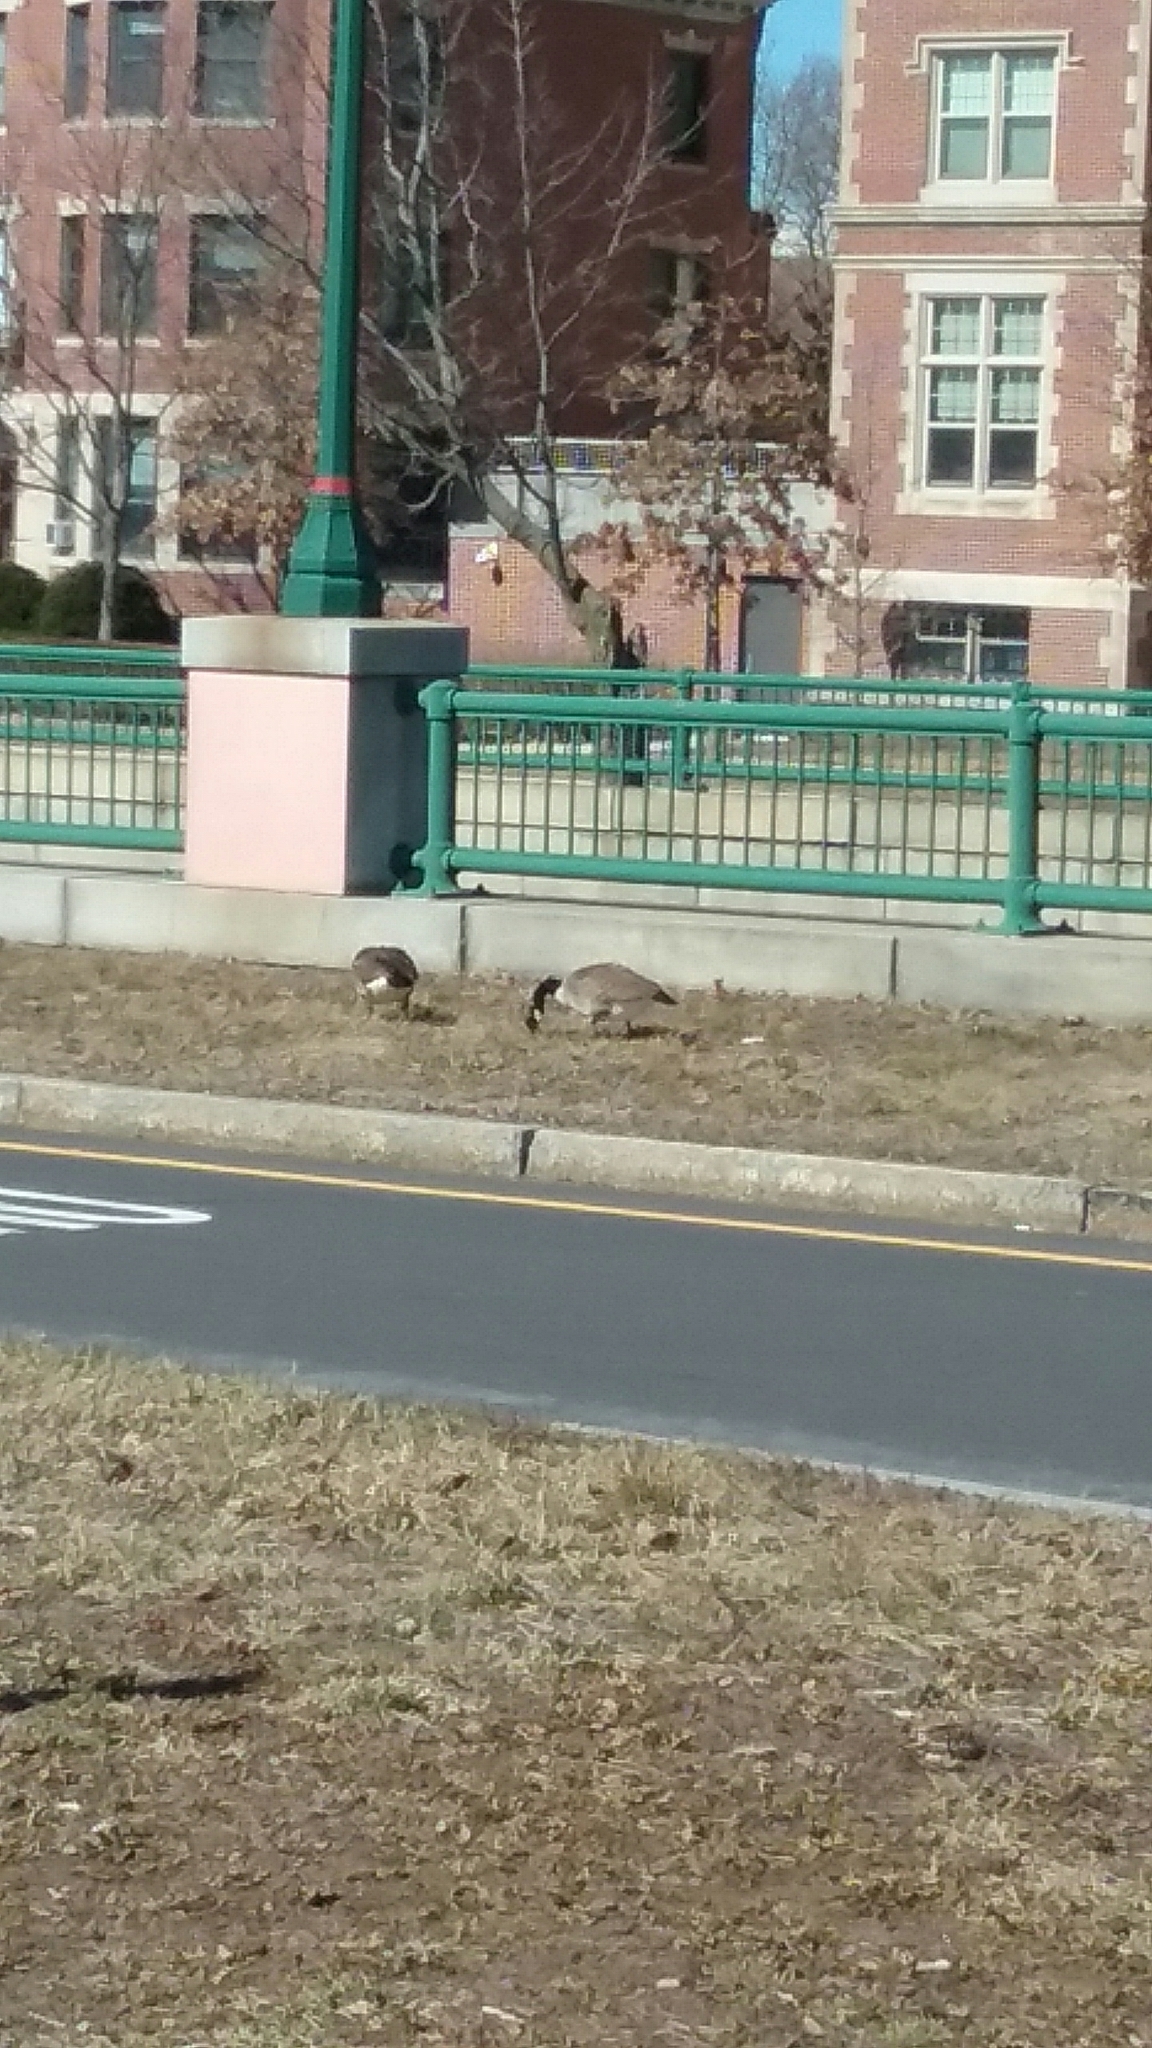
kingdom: Animalia
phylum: Chordata
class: Aves
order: Anseriformes
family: Anatidae
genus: Branta
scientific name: Branta canadensis
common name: Canada goose
